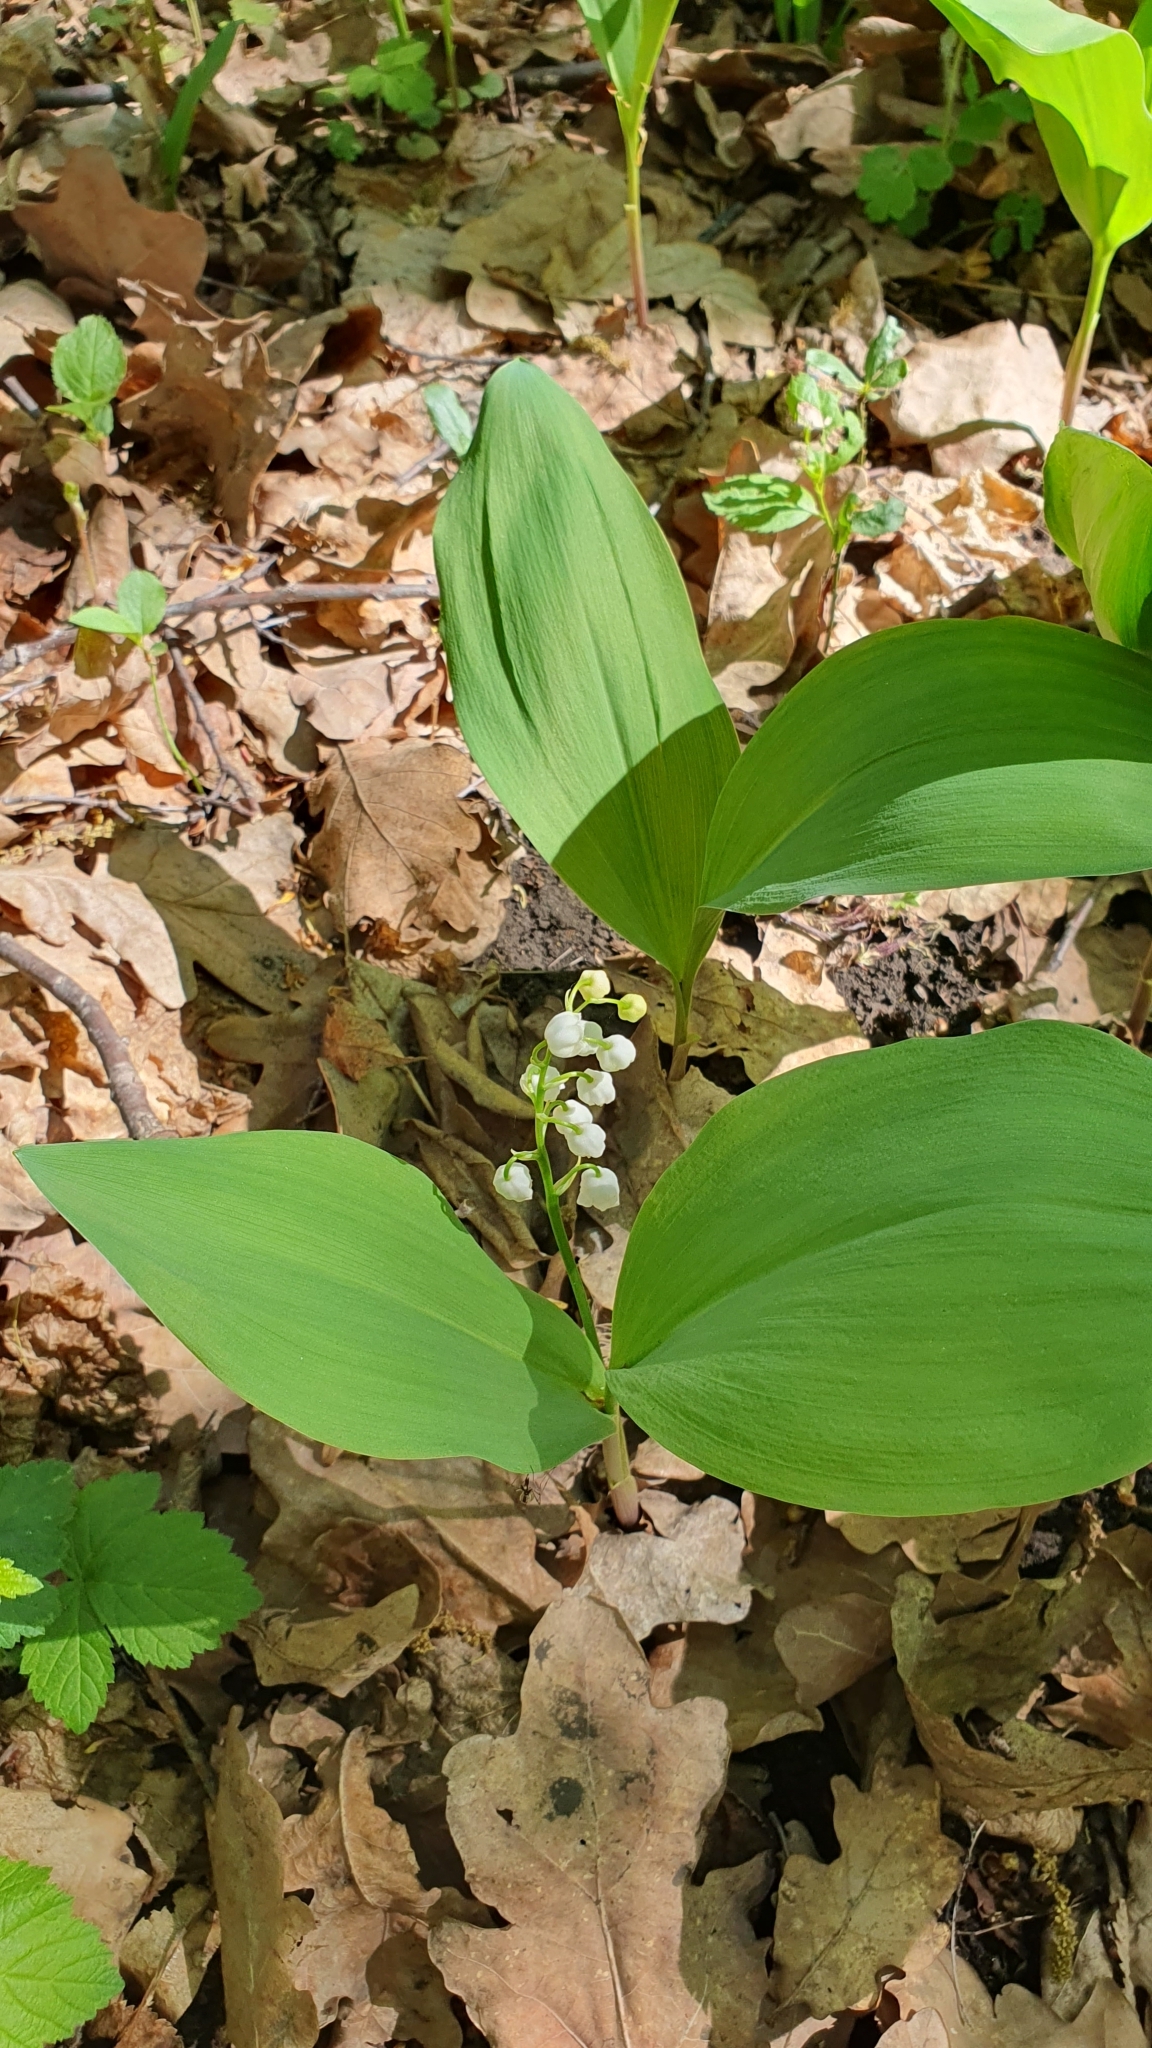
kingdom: Plantae
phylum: Tracheophyta
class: Liliopsida
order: Asparagales
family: Asparagaceae
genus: Convallaria
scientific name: Convallaria majalis
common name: Lily-of-the-valley
